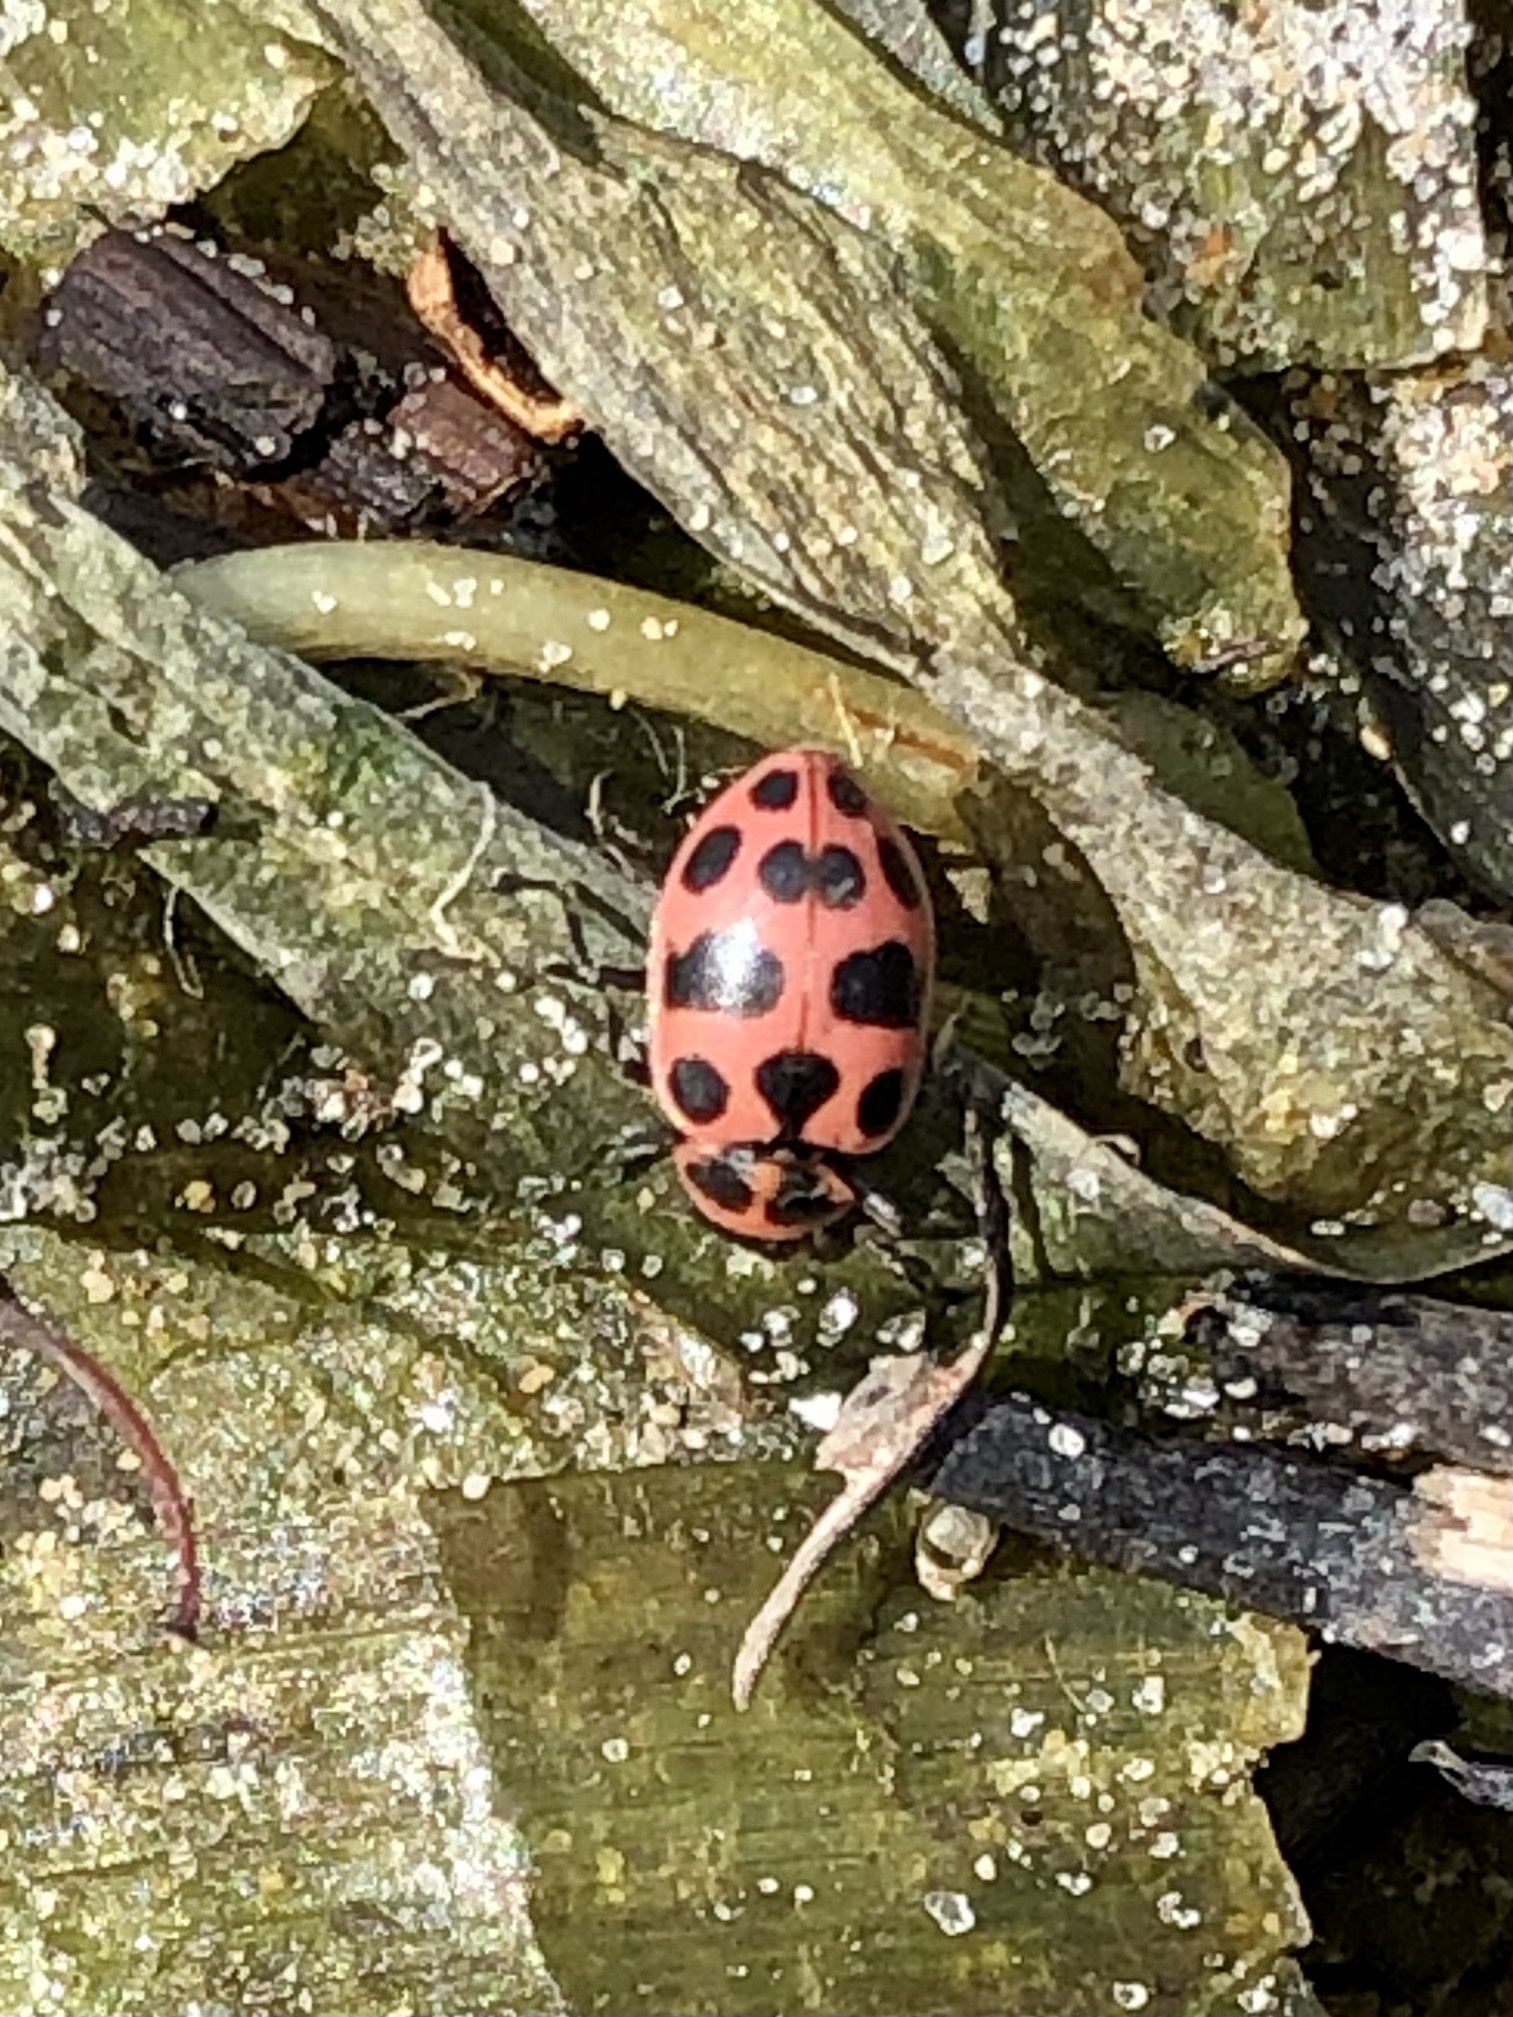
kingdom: Animalia
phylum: Arthropoda
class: Insecta
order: Coleoptera
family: Coccinellidae
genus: Coleomegilla
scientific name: Coleomegilla maculata
